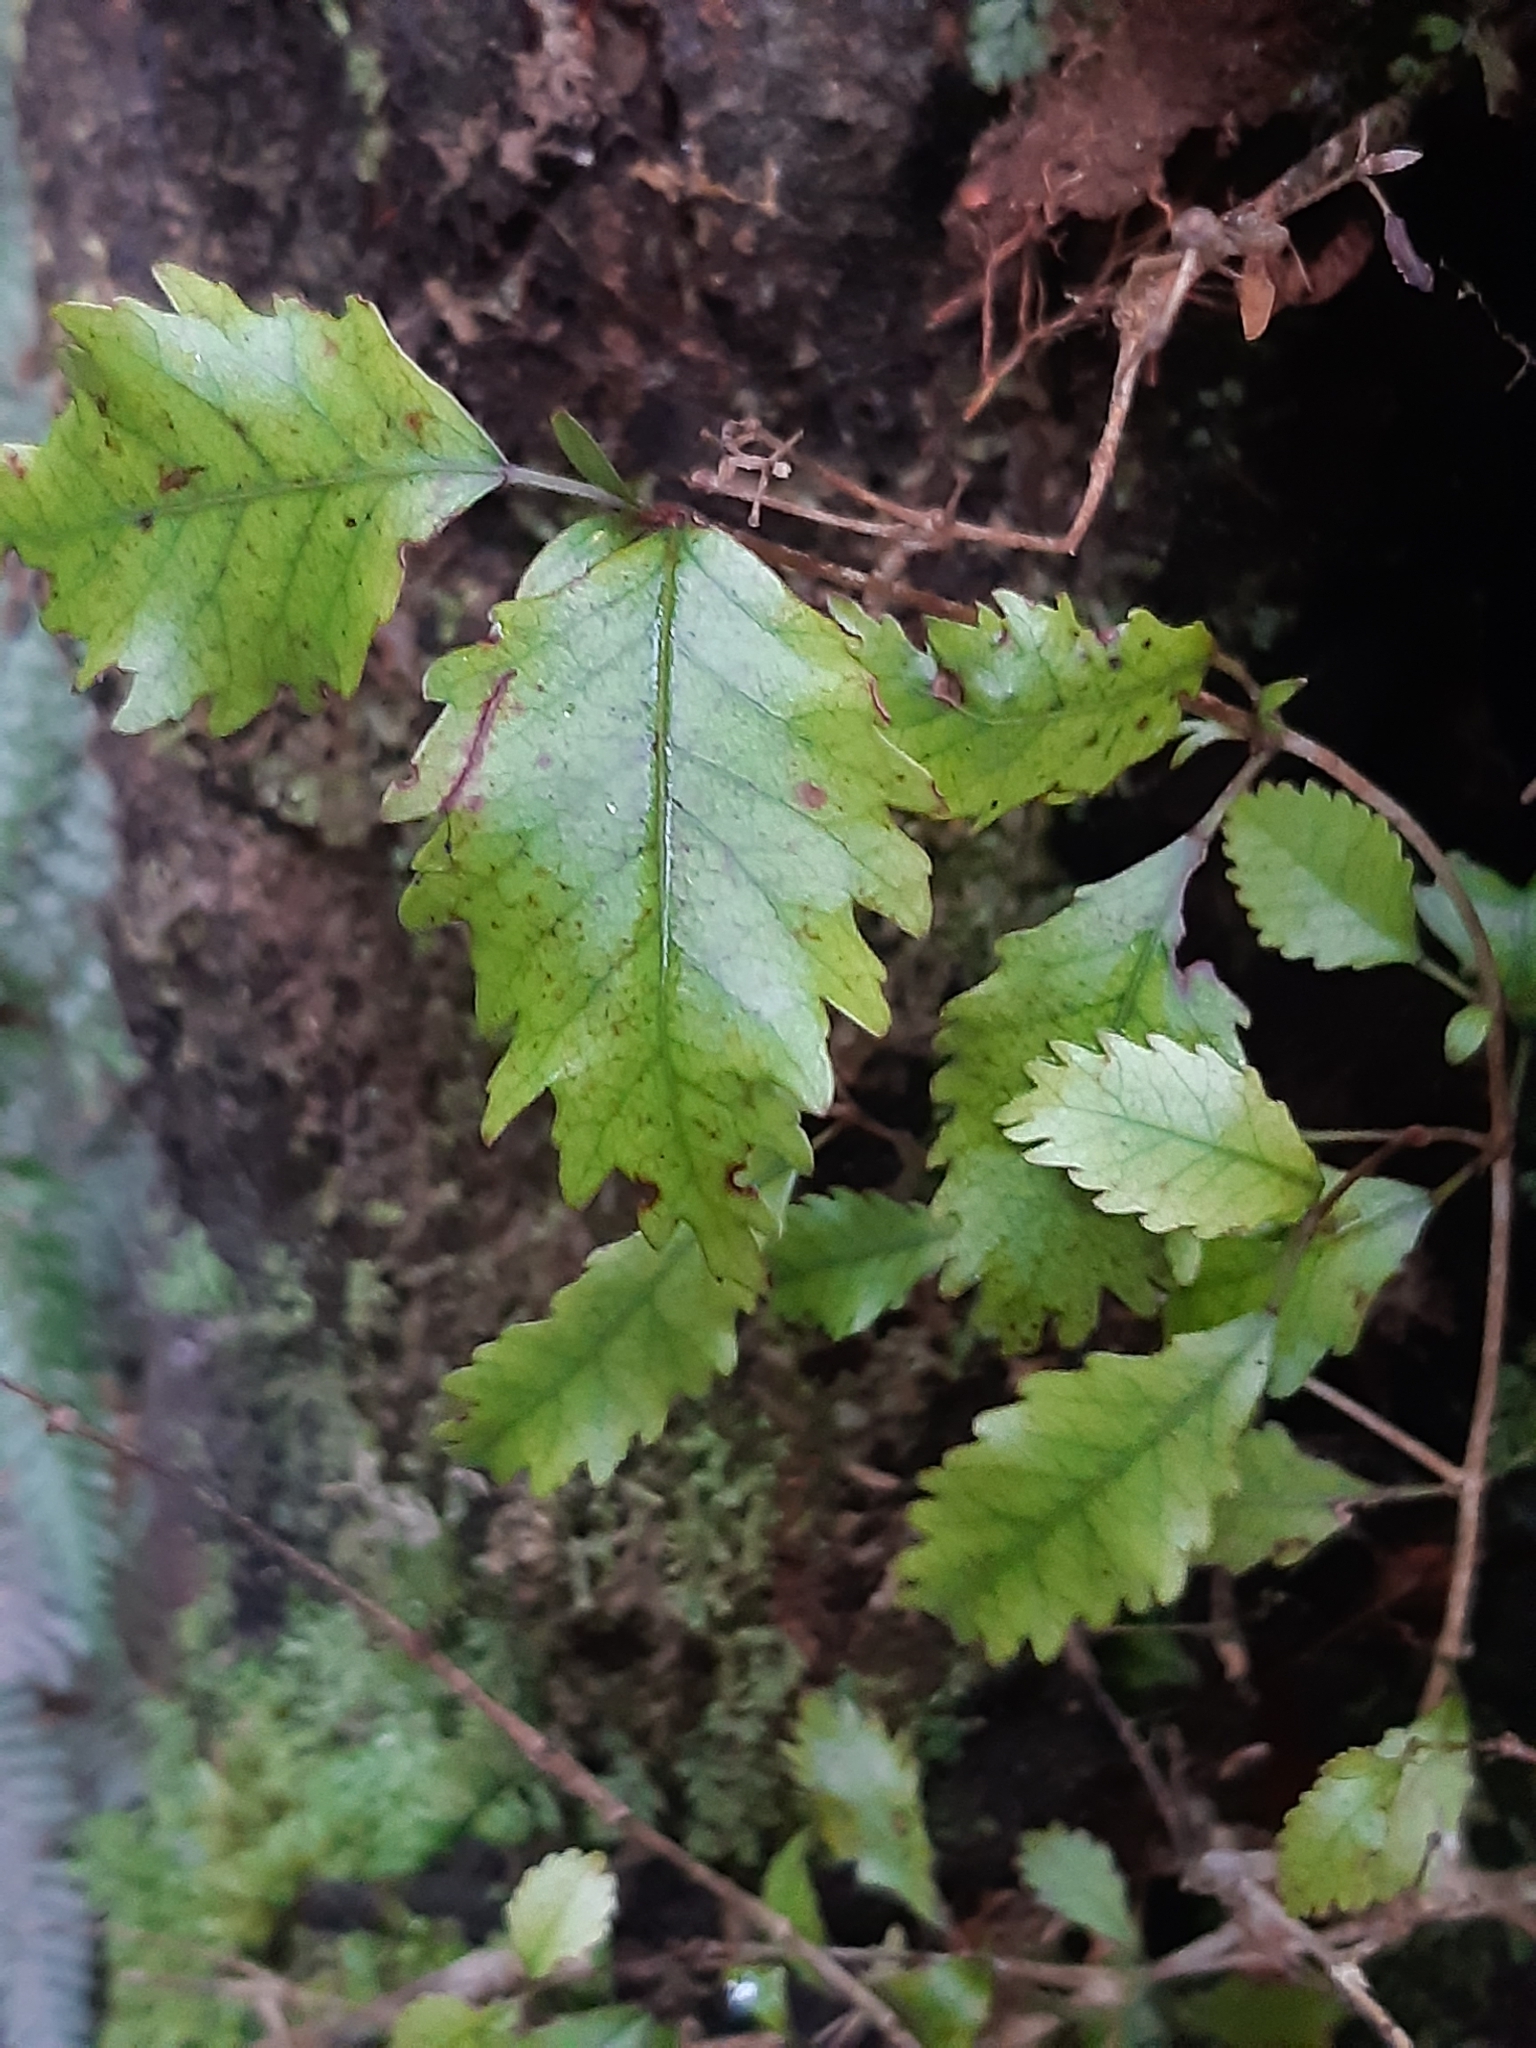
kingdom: Plantae
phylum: Tracheophyta
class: Magnoliopsida
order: Oxalidales
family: Cunoniaceae
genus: Pterophylla
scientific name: Pterophylla racemosa
